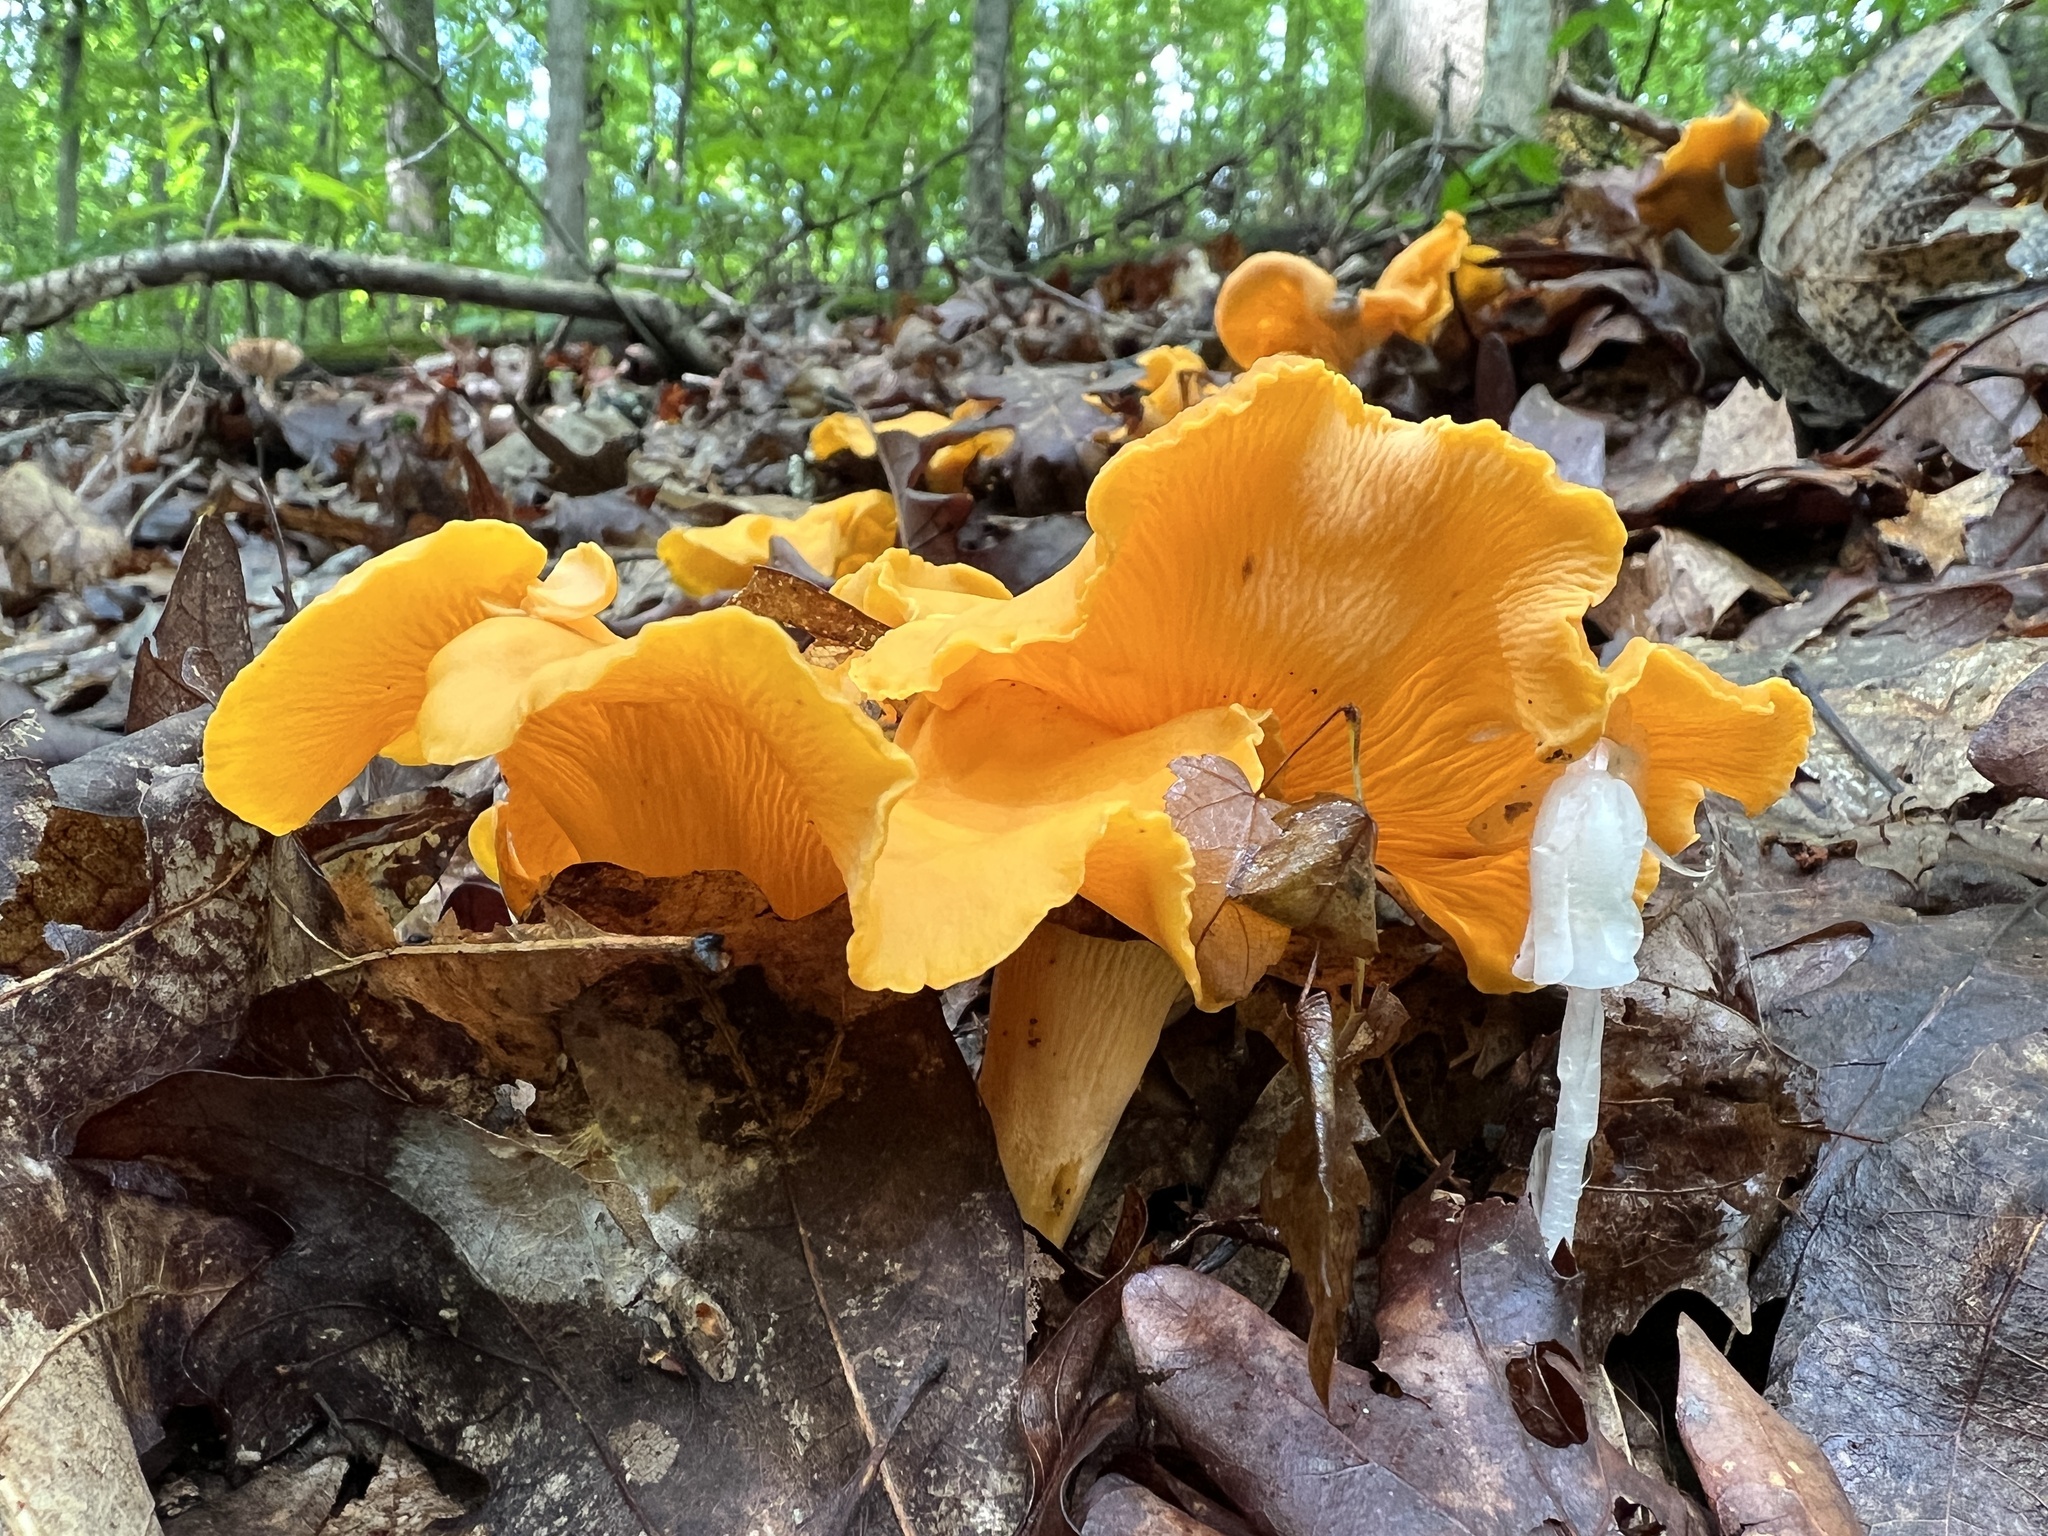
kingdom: Fungi
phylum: Basidiomycota
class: Agaricomycetes
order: Cantharellales
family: Hydnaceae
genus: Cantharellus
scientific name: Cantharellus flavolateritius
